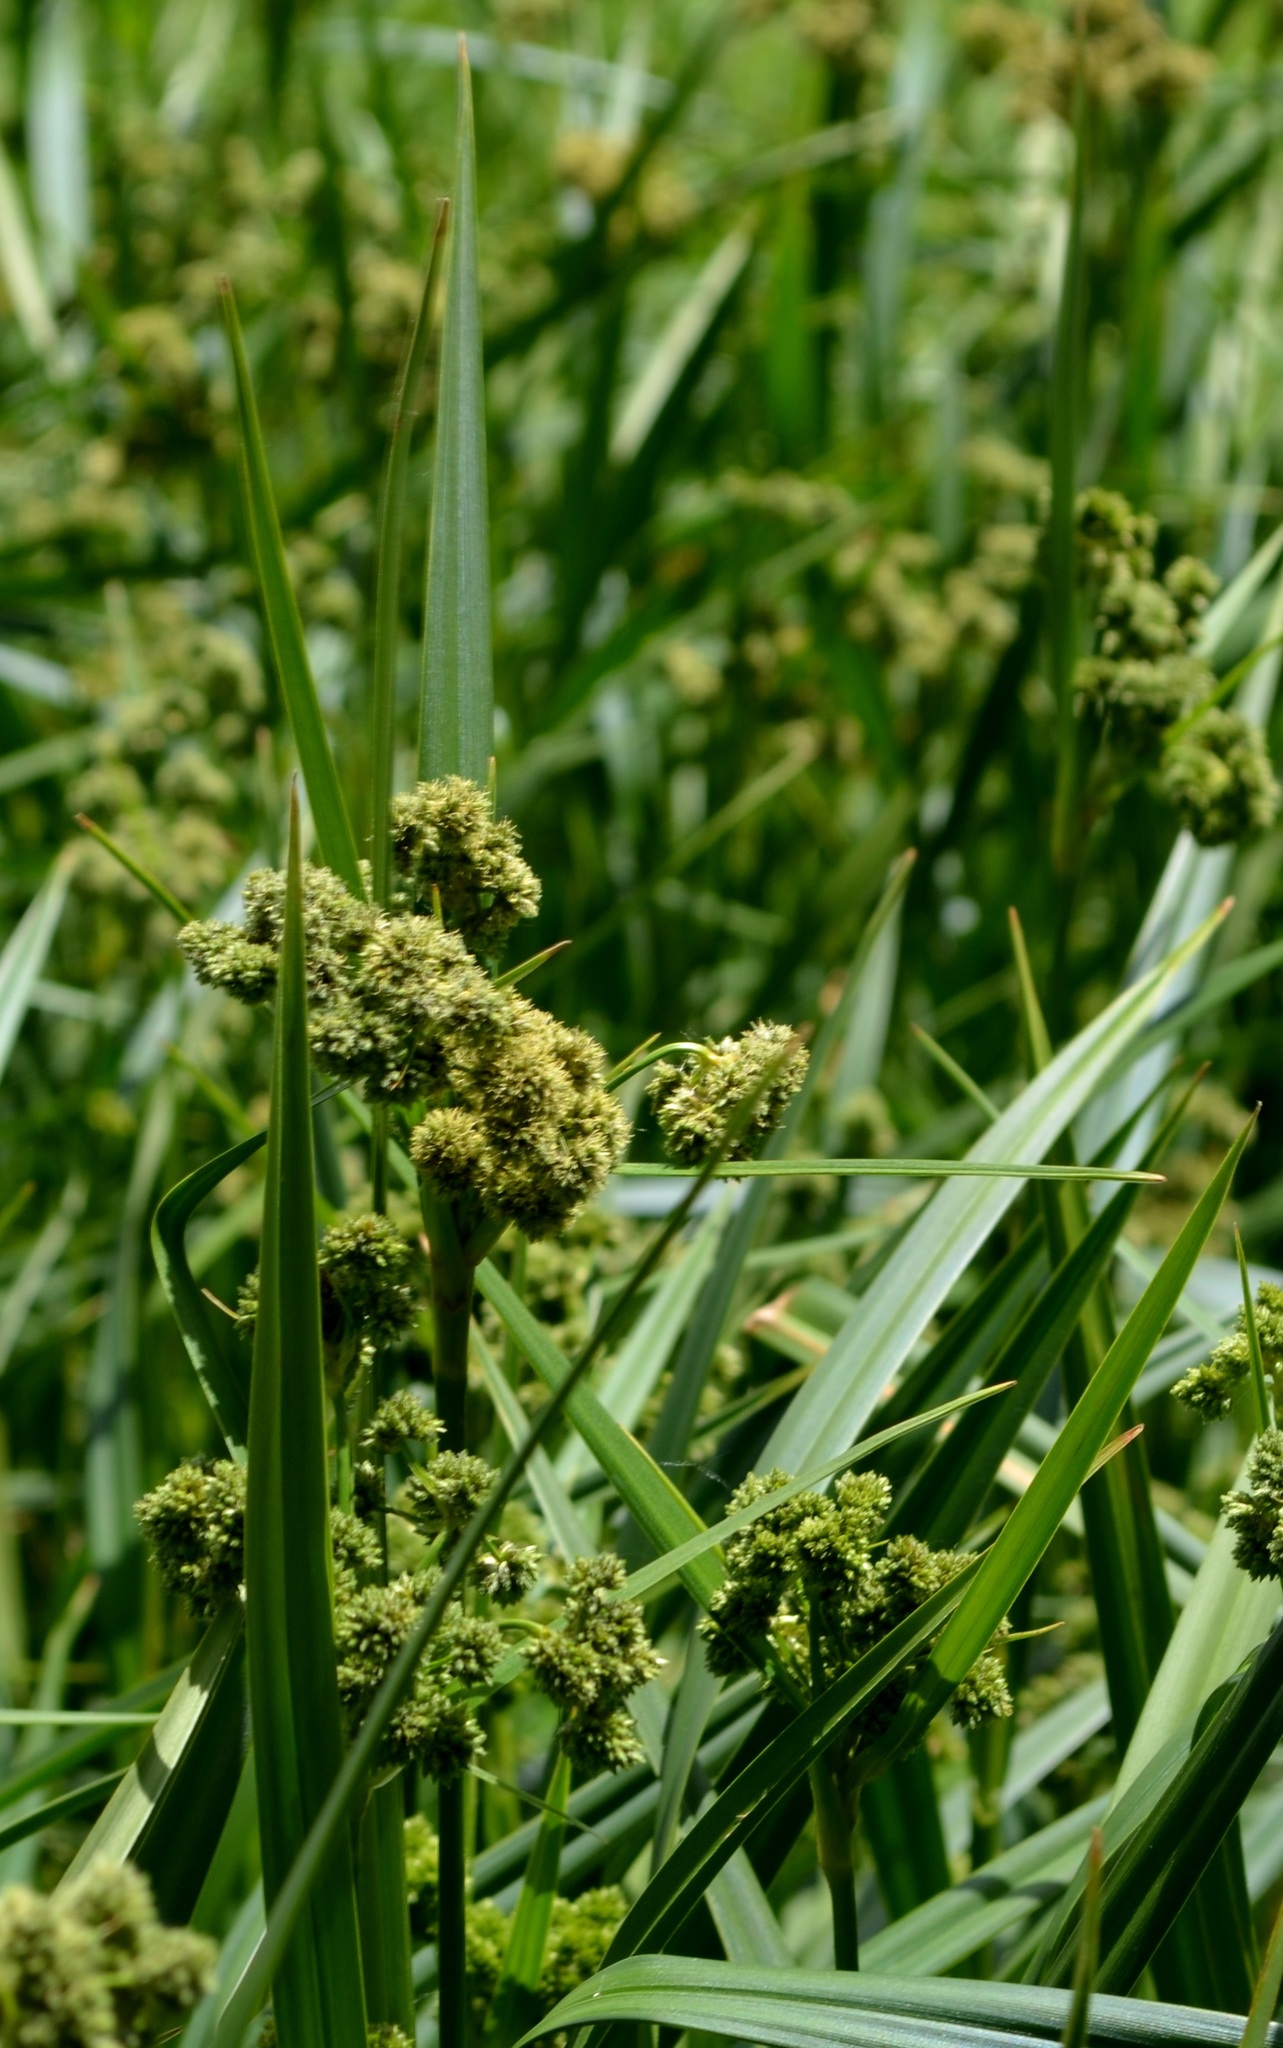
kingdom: Plantae
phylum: Tracheophyta
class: Liliopsida
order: Poales
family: Cyperaceae
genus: Scirpus
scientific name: Scirpus atrovirens
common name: Black bulrush
